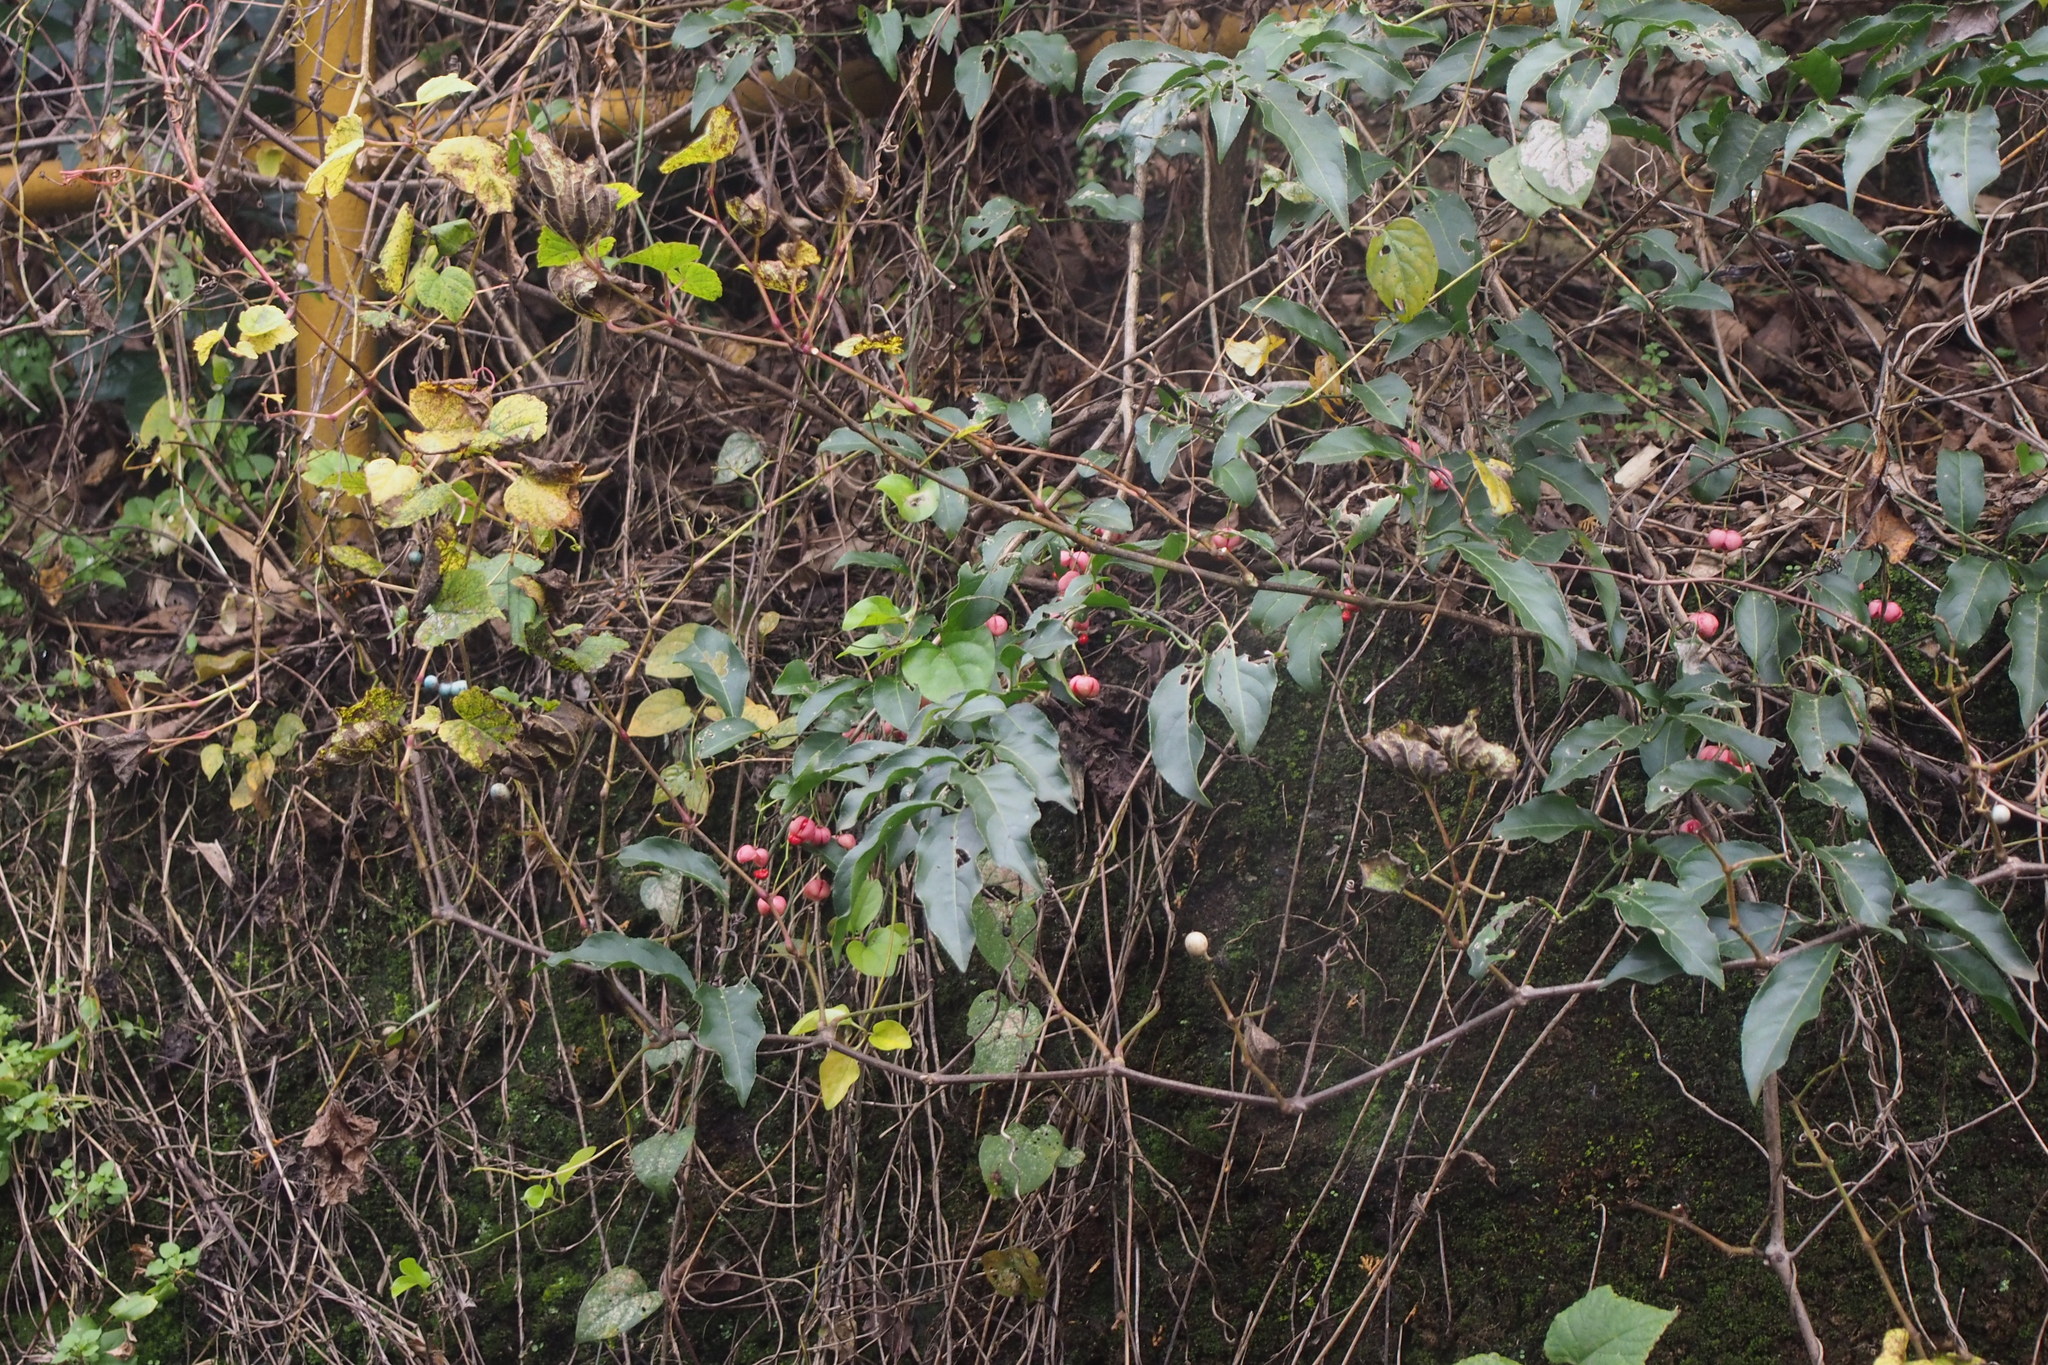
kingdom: Plantae
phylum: Tracheophyta
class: Magnoliopsida
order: Celastrales
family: Celastraceae
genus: Euonymus
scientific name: Euonymus hamiltonianus
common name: Hamilton's spindletree
